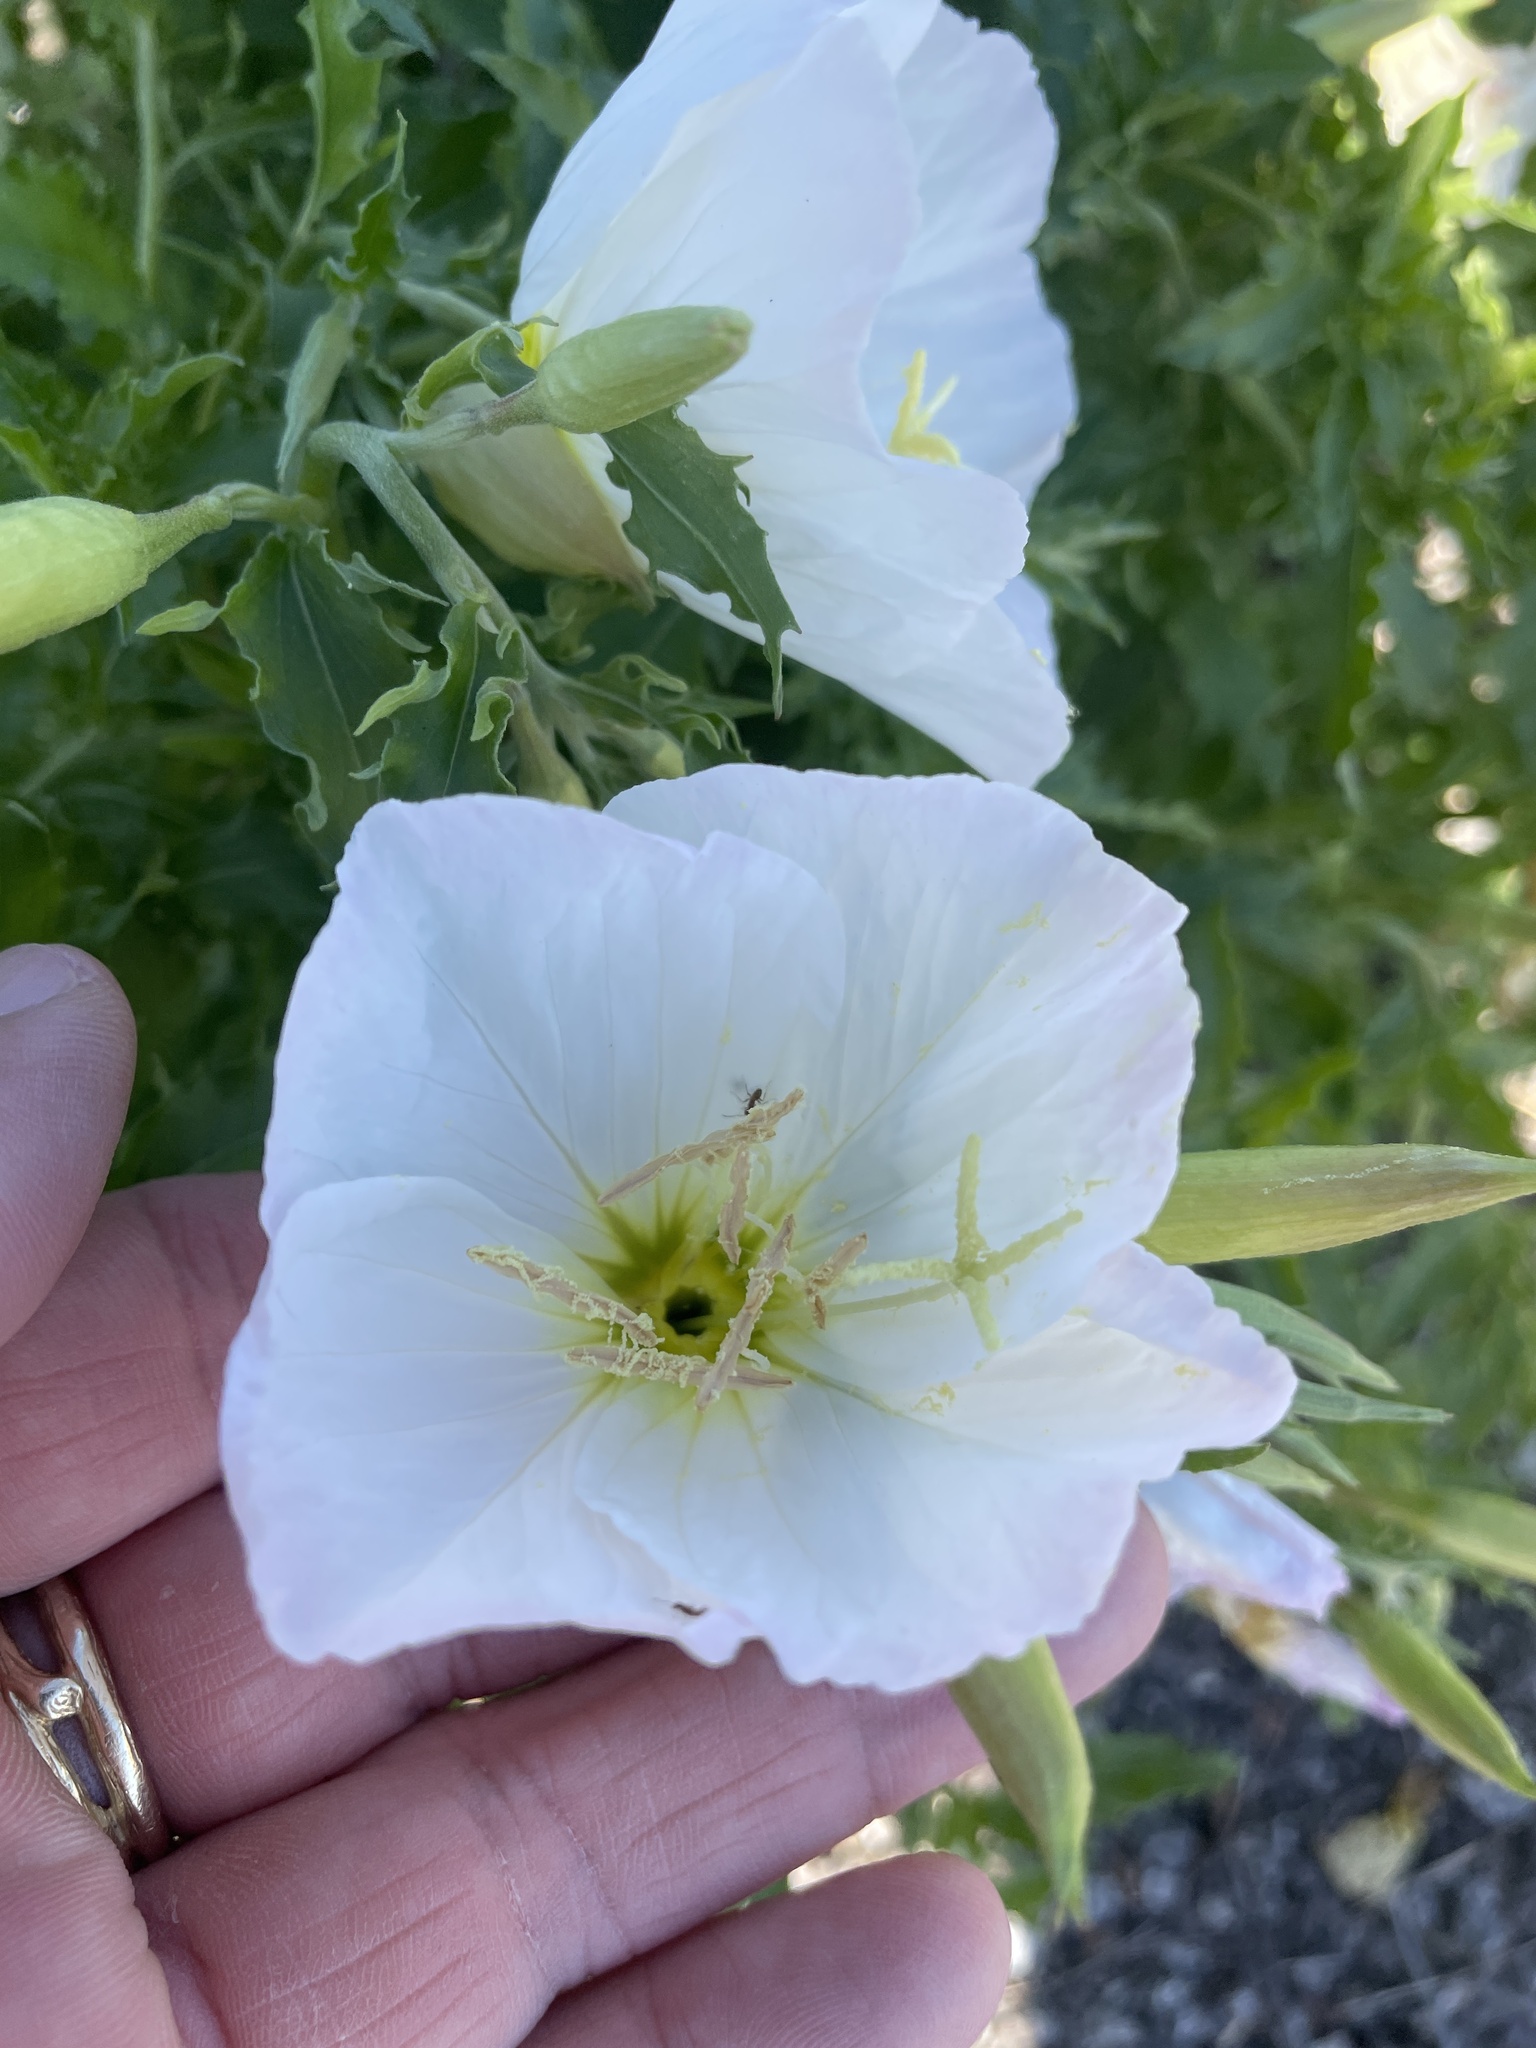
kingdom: Plantae
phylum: Tracheophyta
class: Magnoliopsida
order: Myrtales
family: Onagraceae
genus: Oenothera
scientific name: Oenothera speciosa
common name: White evening-primrose
